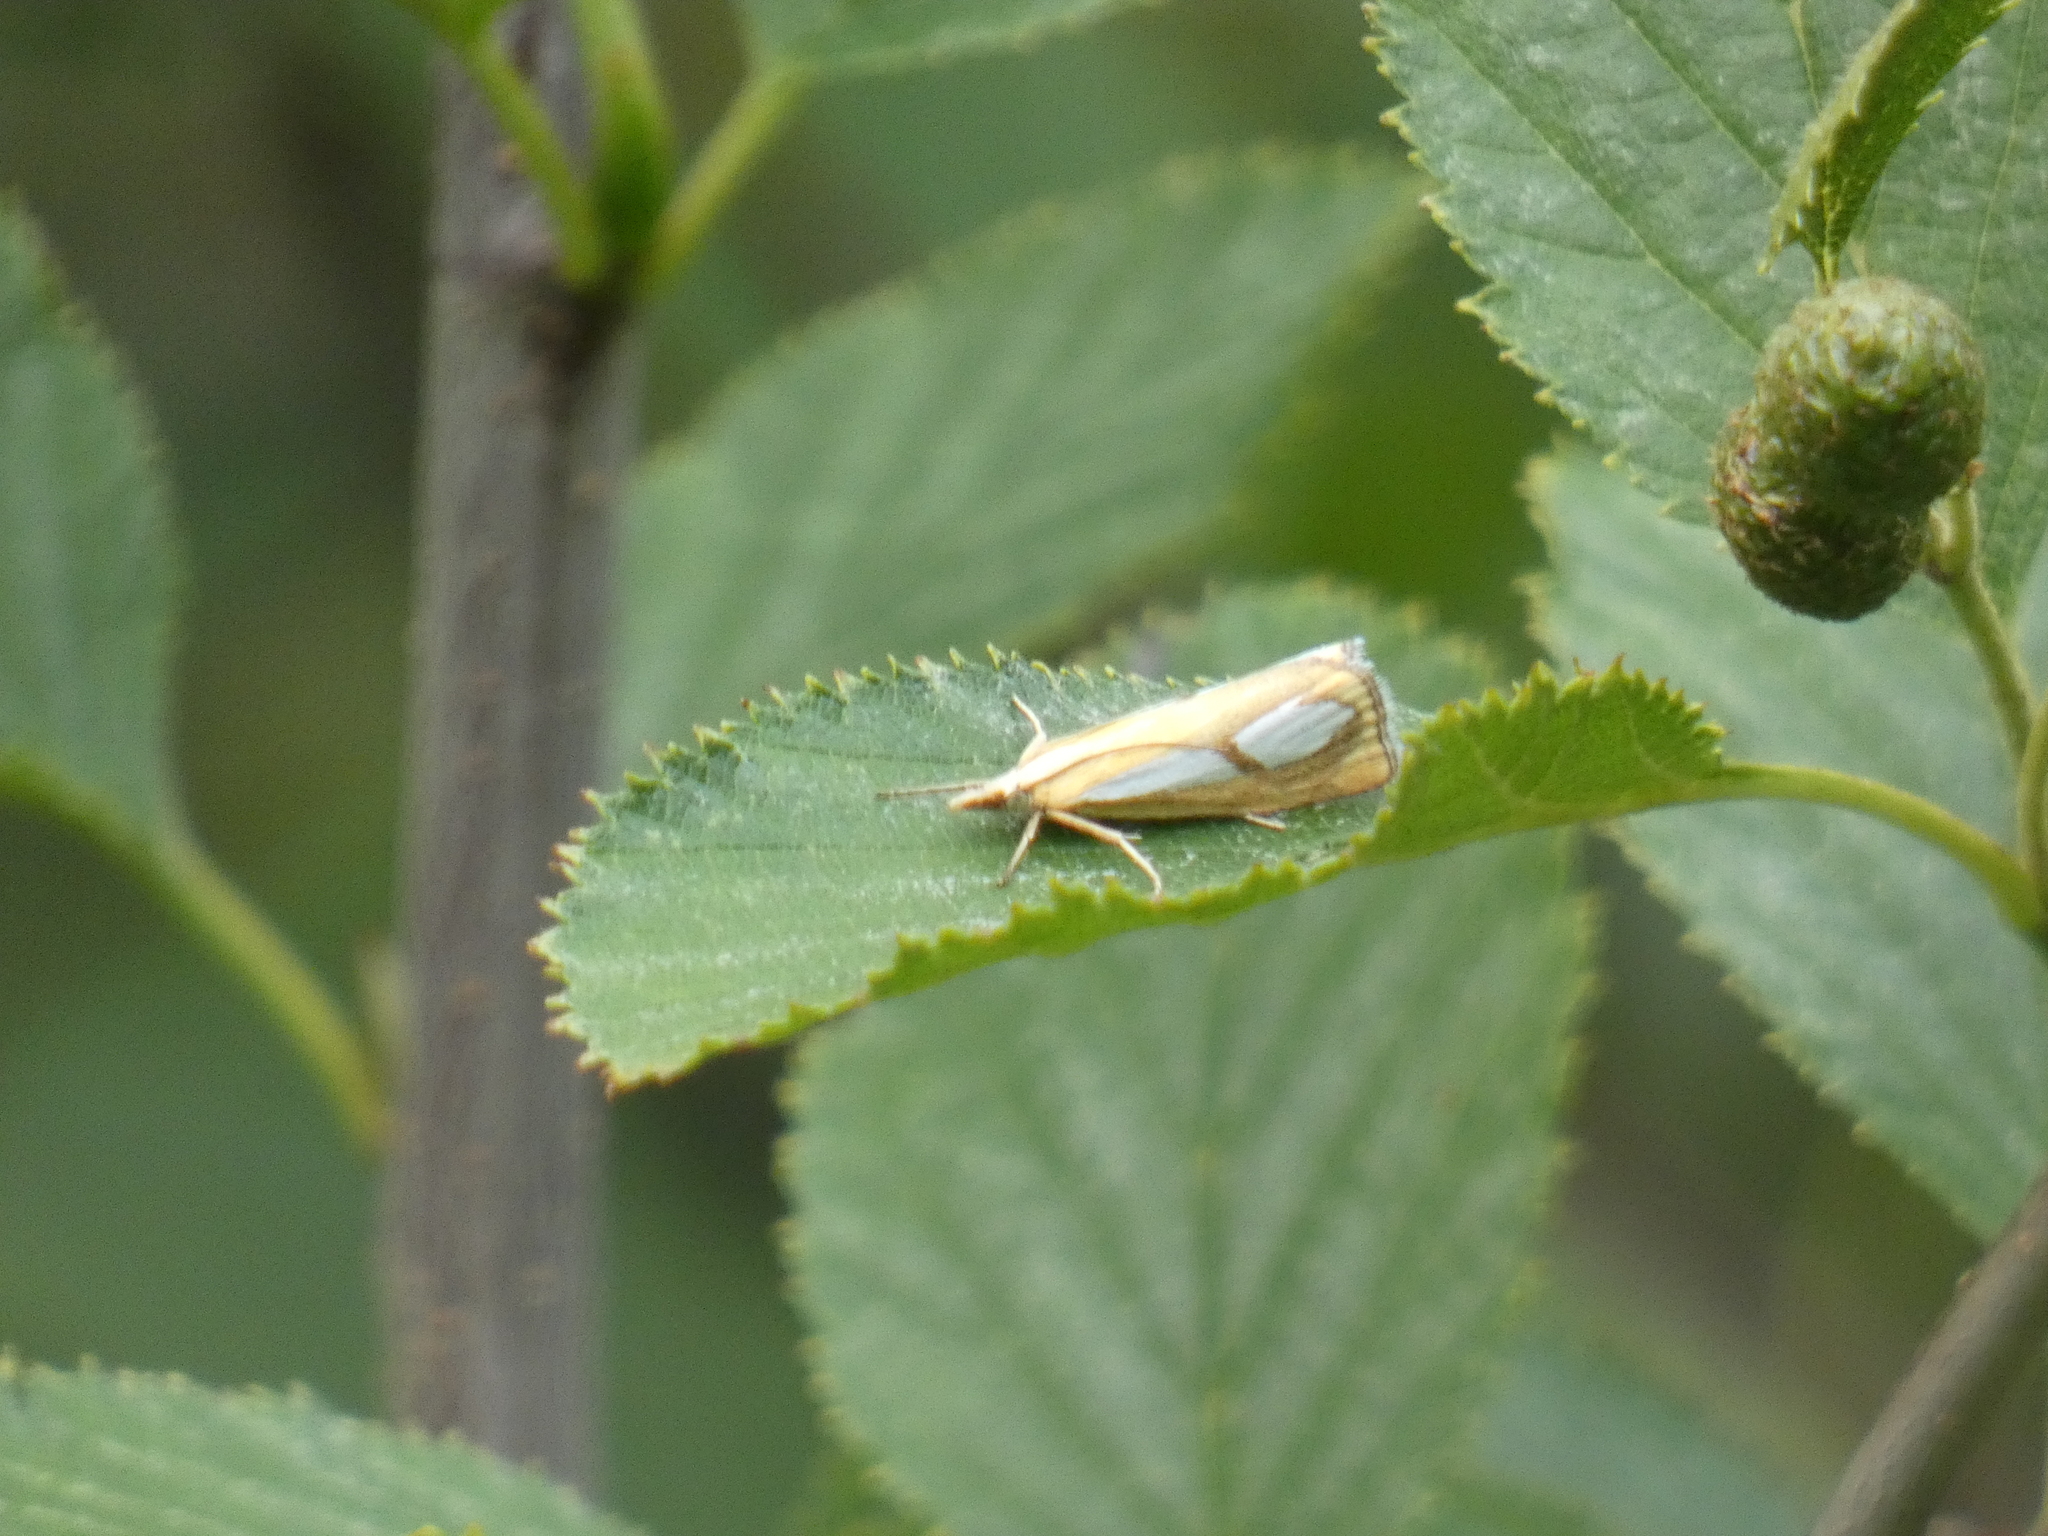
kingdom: Animalia
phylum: Arthropoda
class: Insecta
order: Lepidoptera
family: Crambidae
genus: Catoptria
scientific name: Catoptria pinella
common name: Pearl grass-veneer
